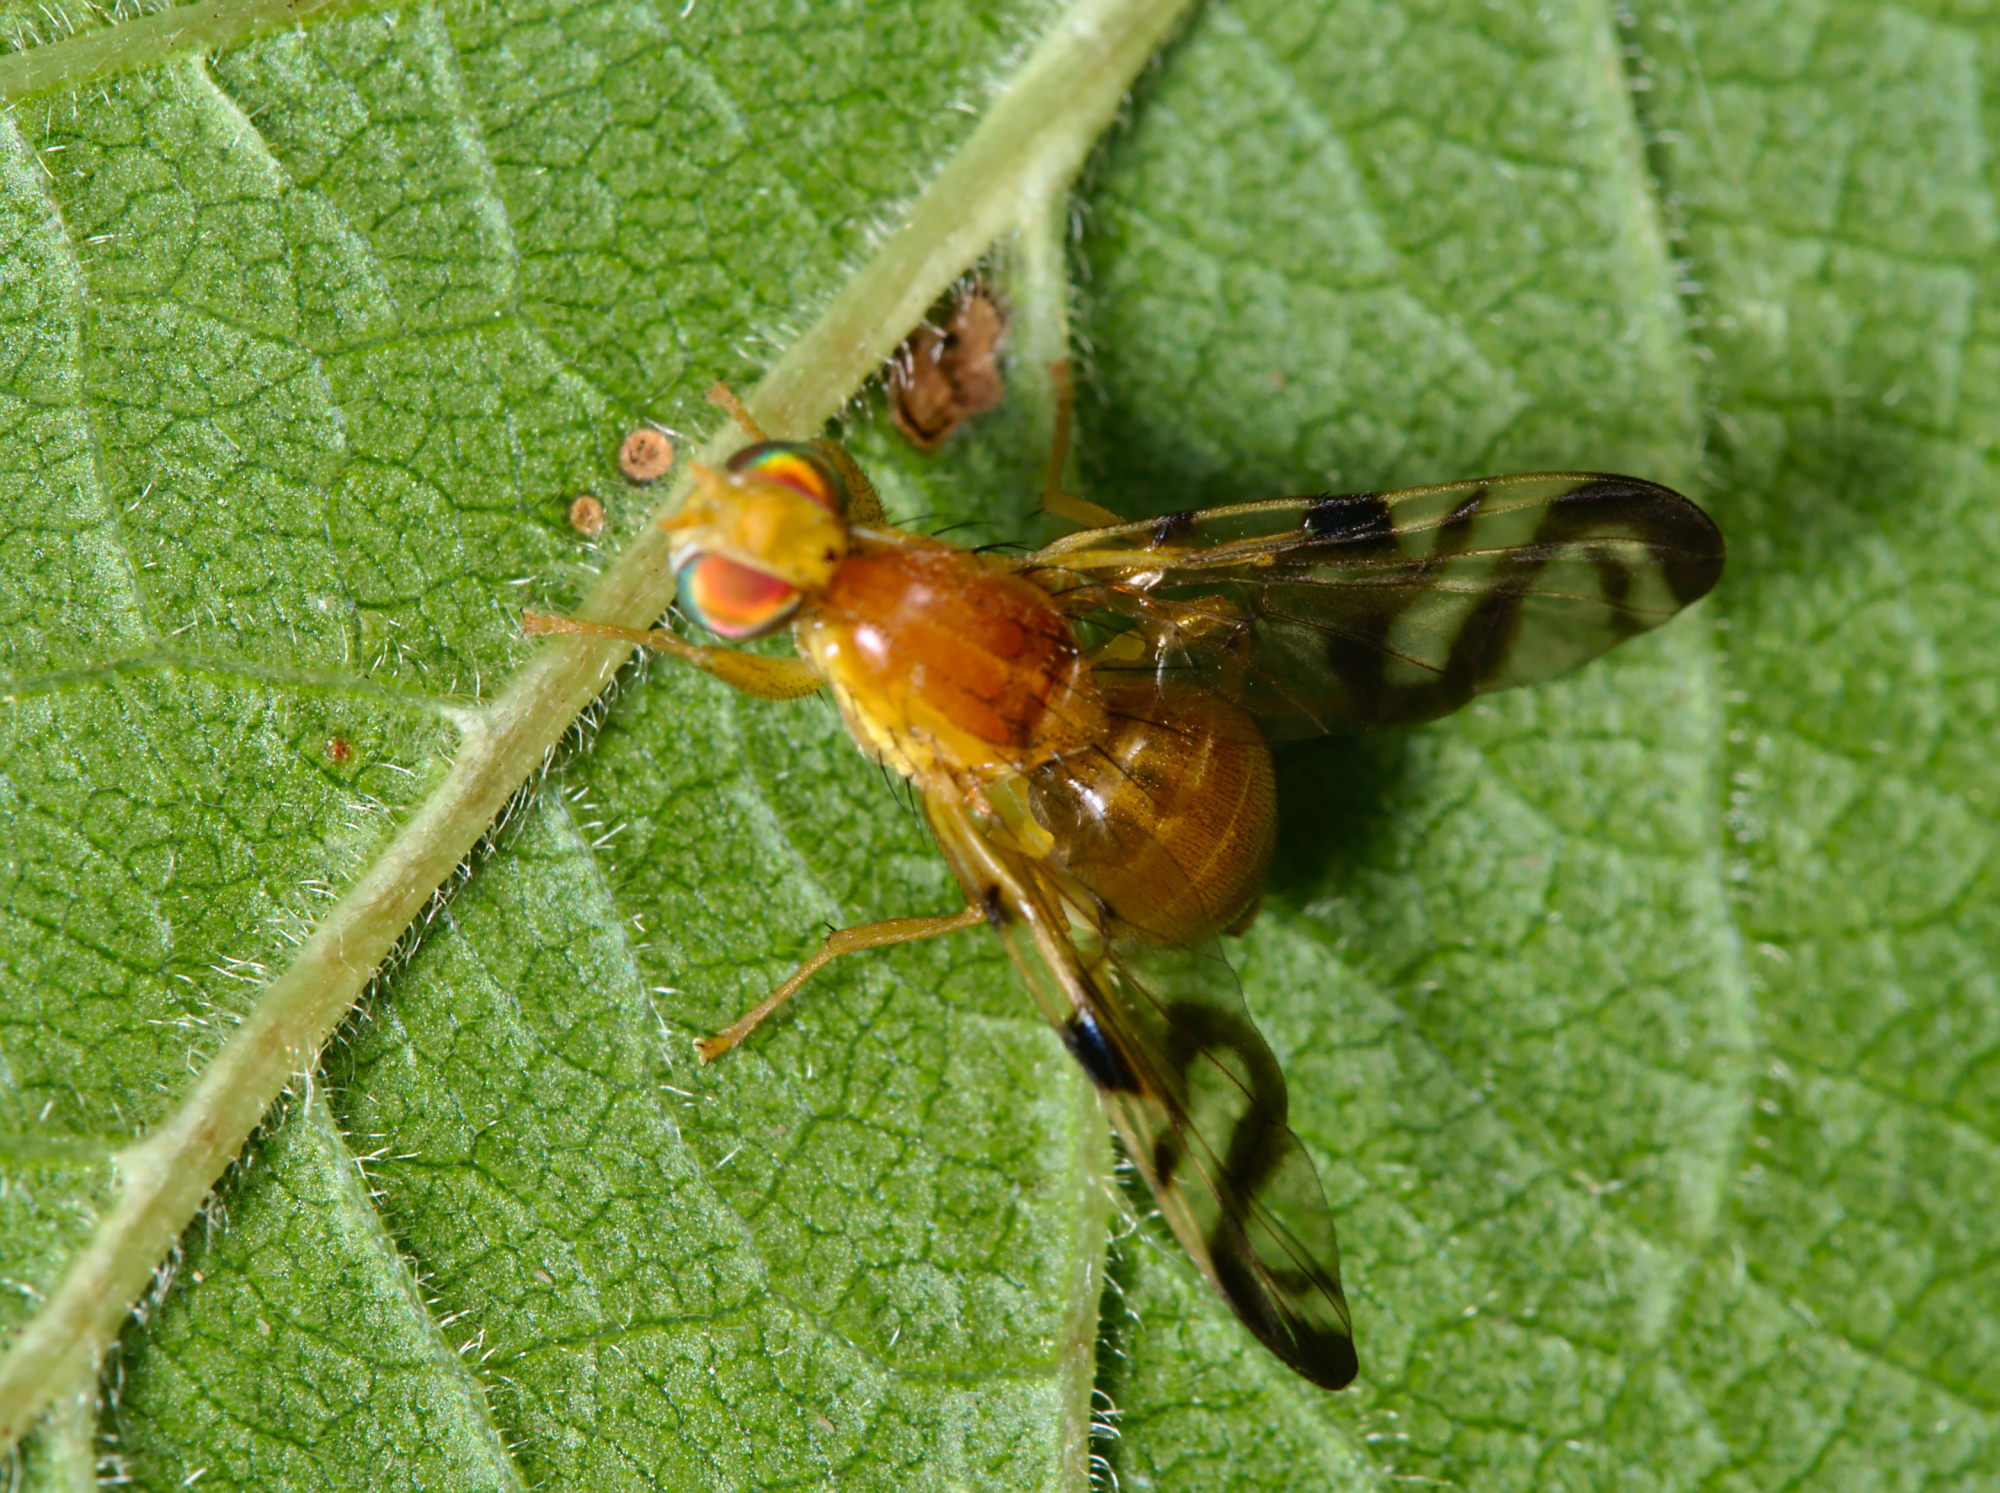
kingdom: Animalia
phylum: Arthropoda
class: Insecta
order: Diptera
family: Tephritidae
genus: Acidia
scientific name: Acidia cognata
